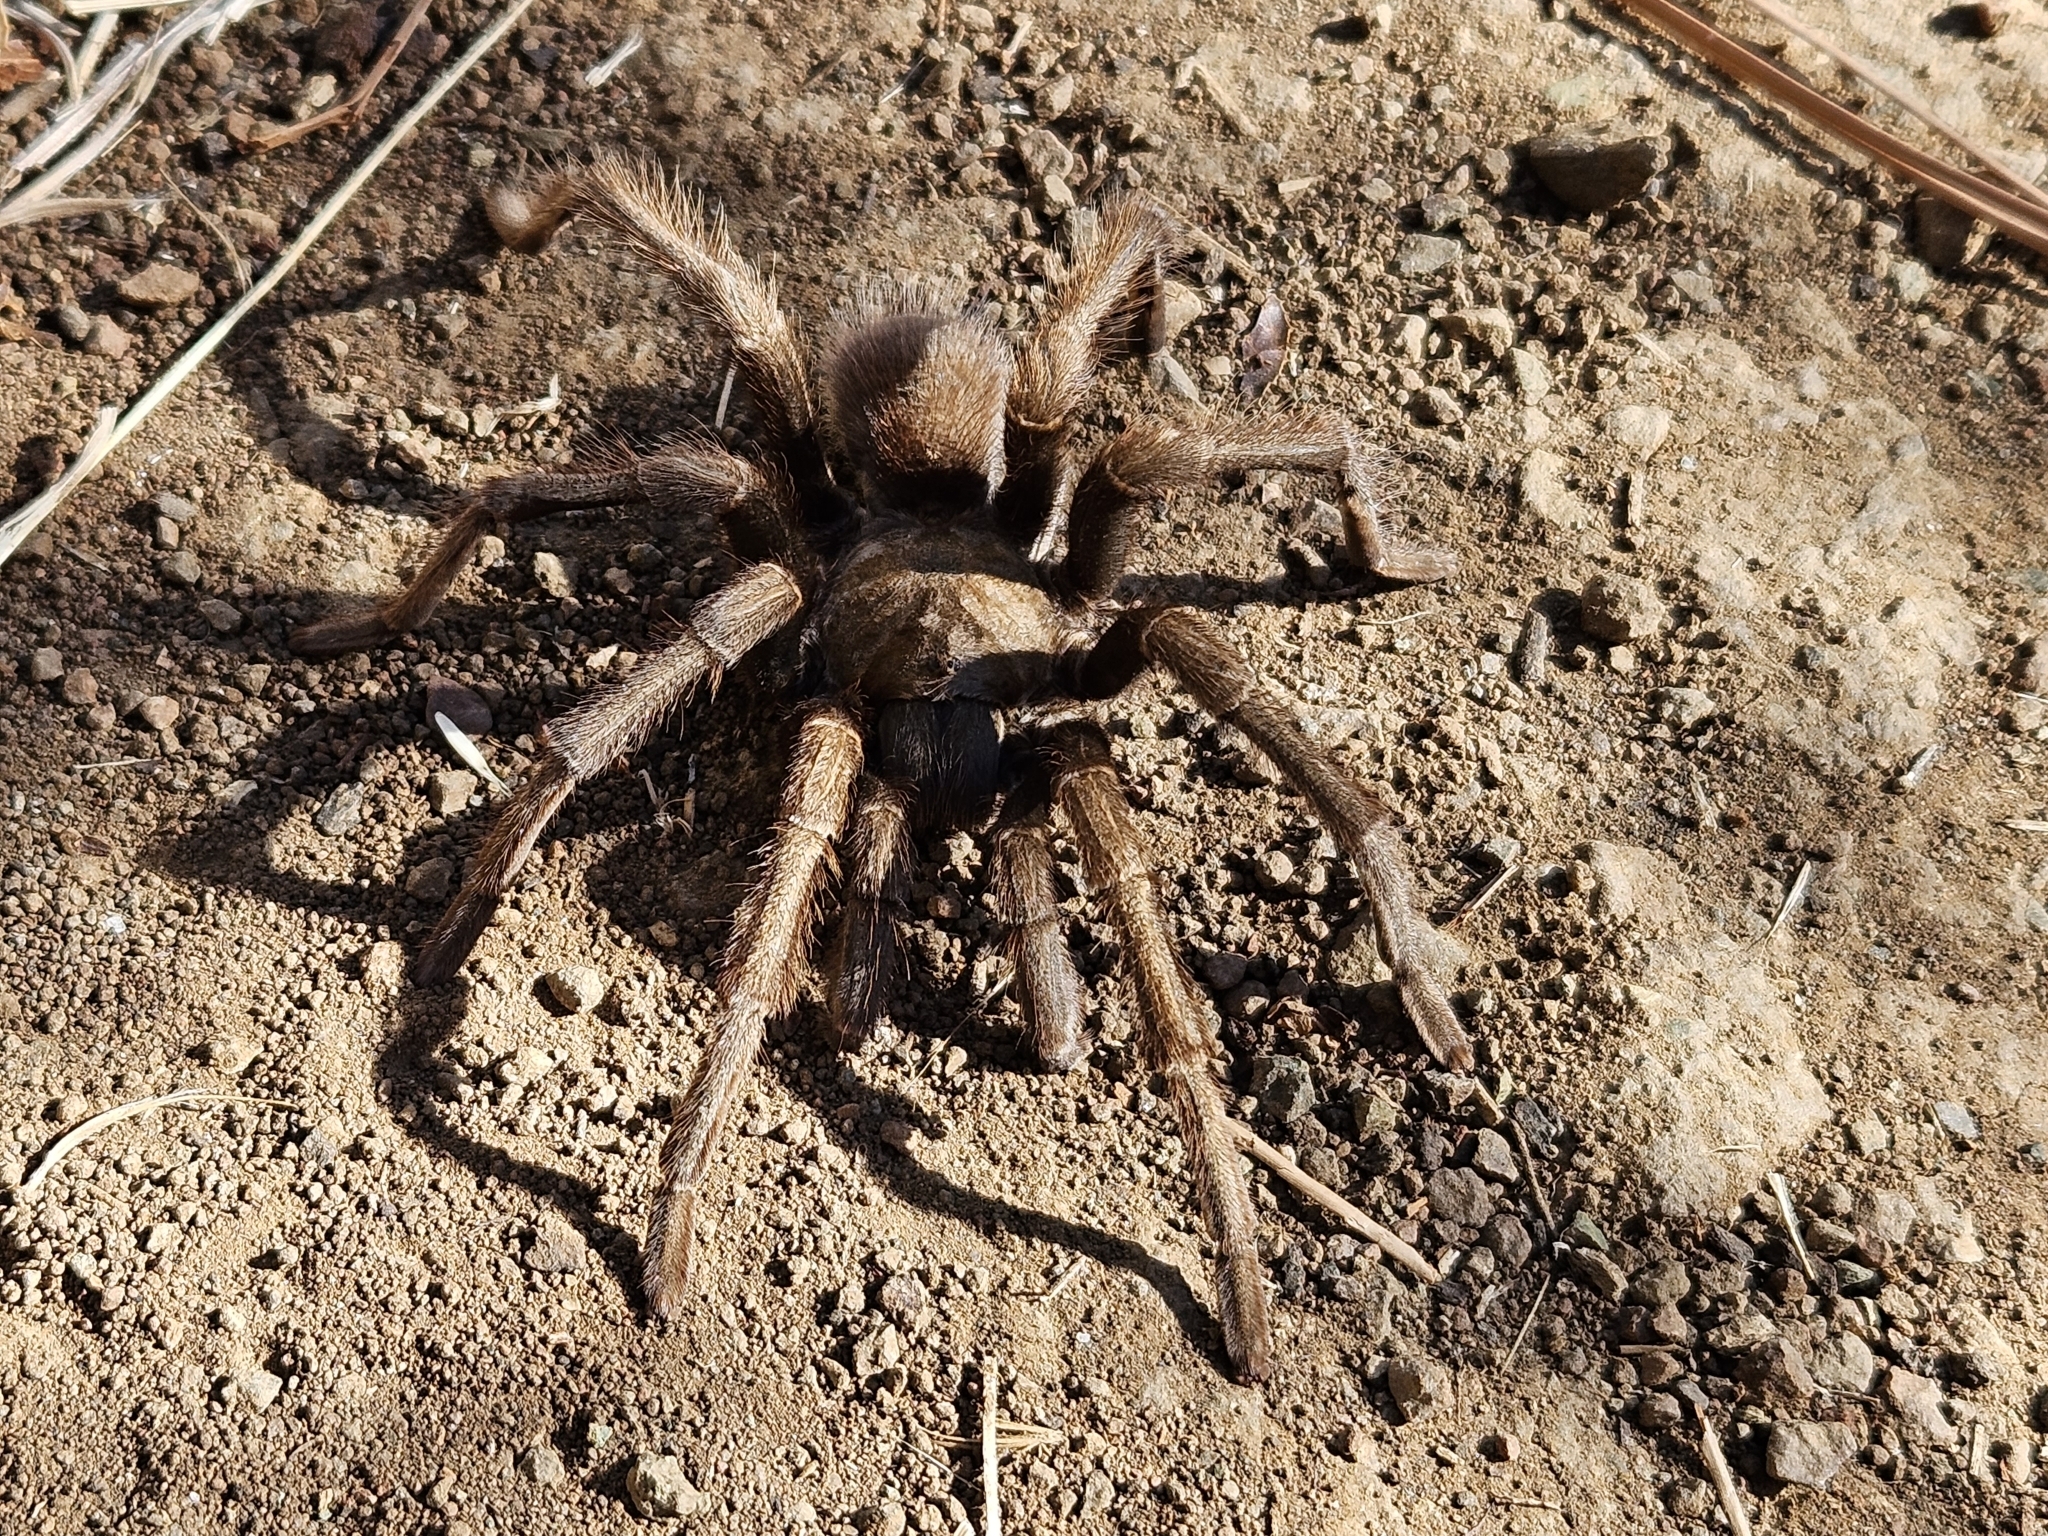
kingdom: Animalia
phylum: Arthropoda
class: Arachnida
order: Araneae
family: Theraphosidae
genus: Aphonopelma
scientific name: Aphonopelma iodius
